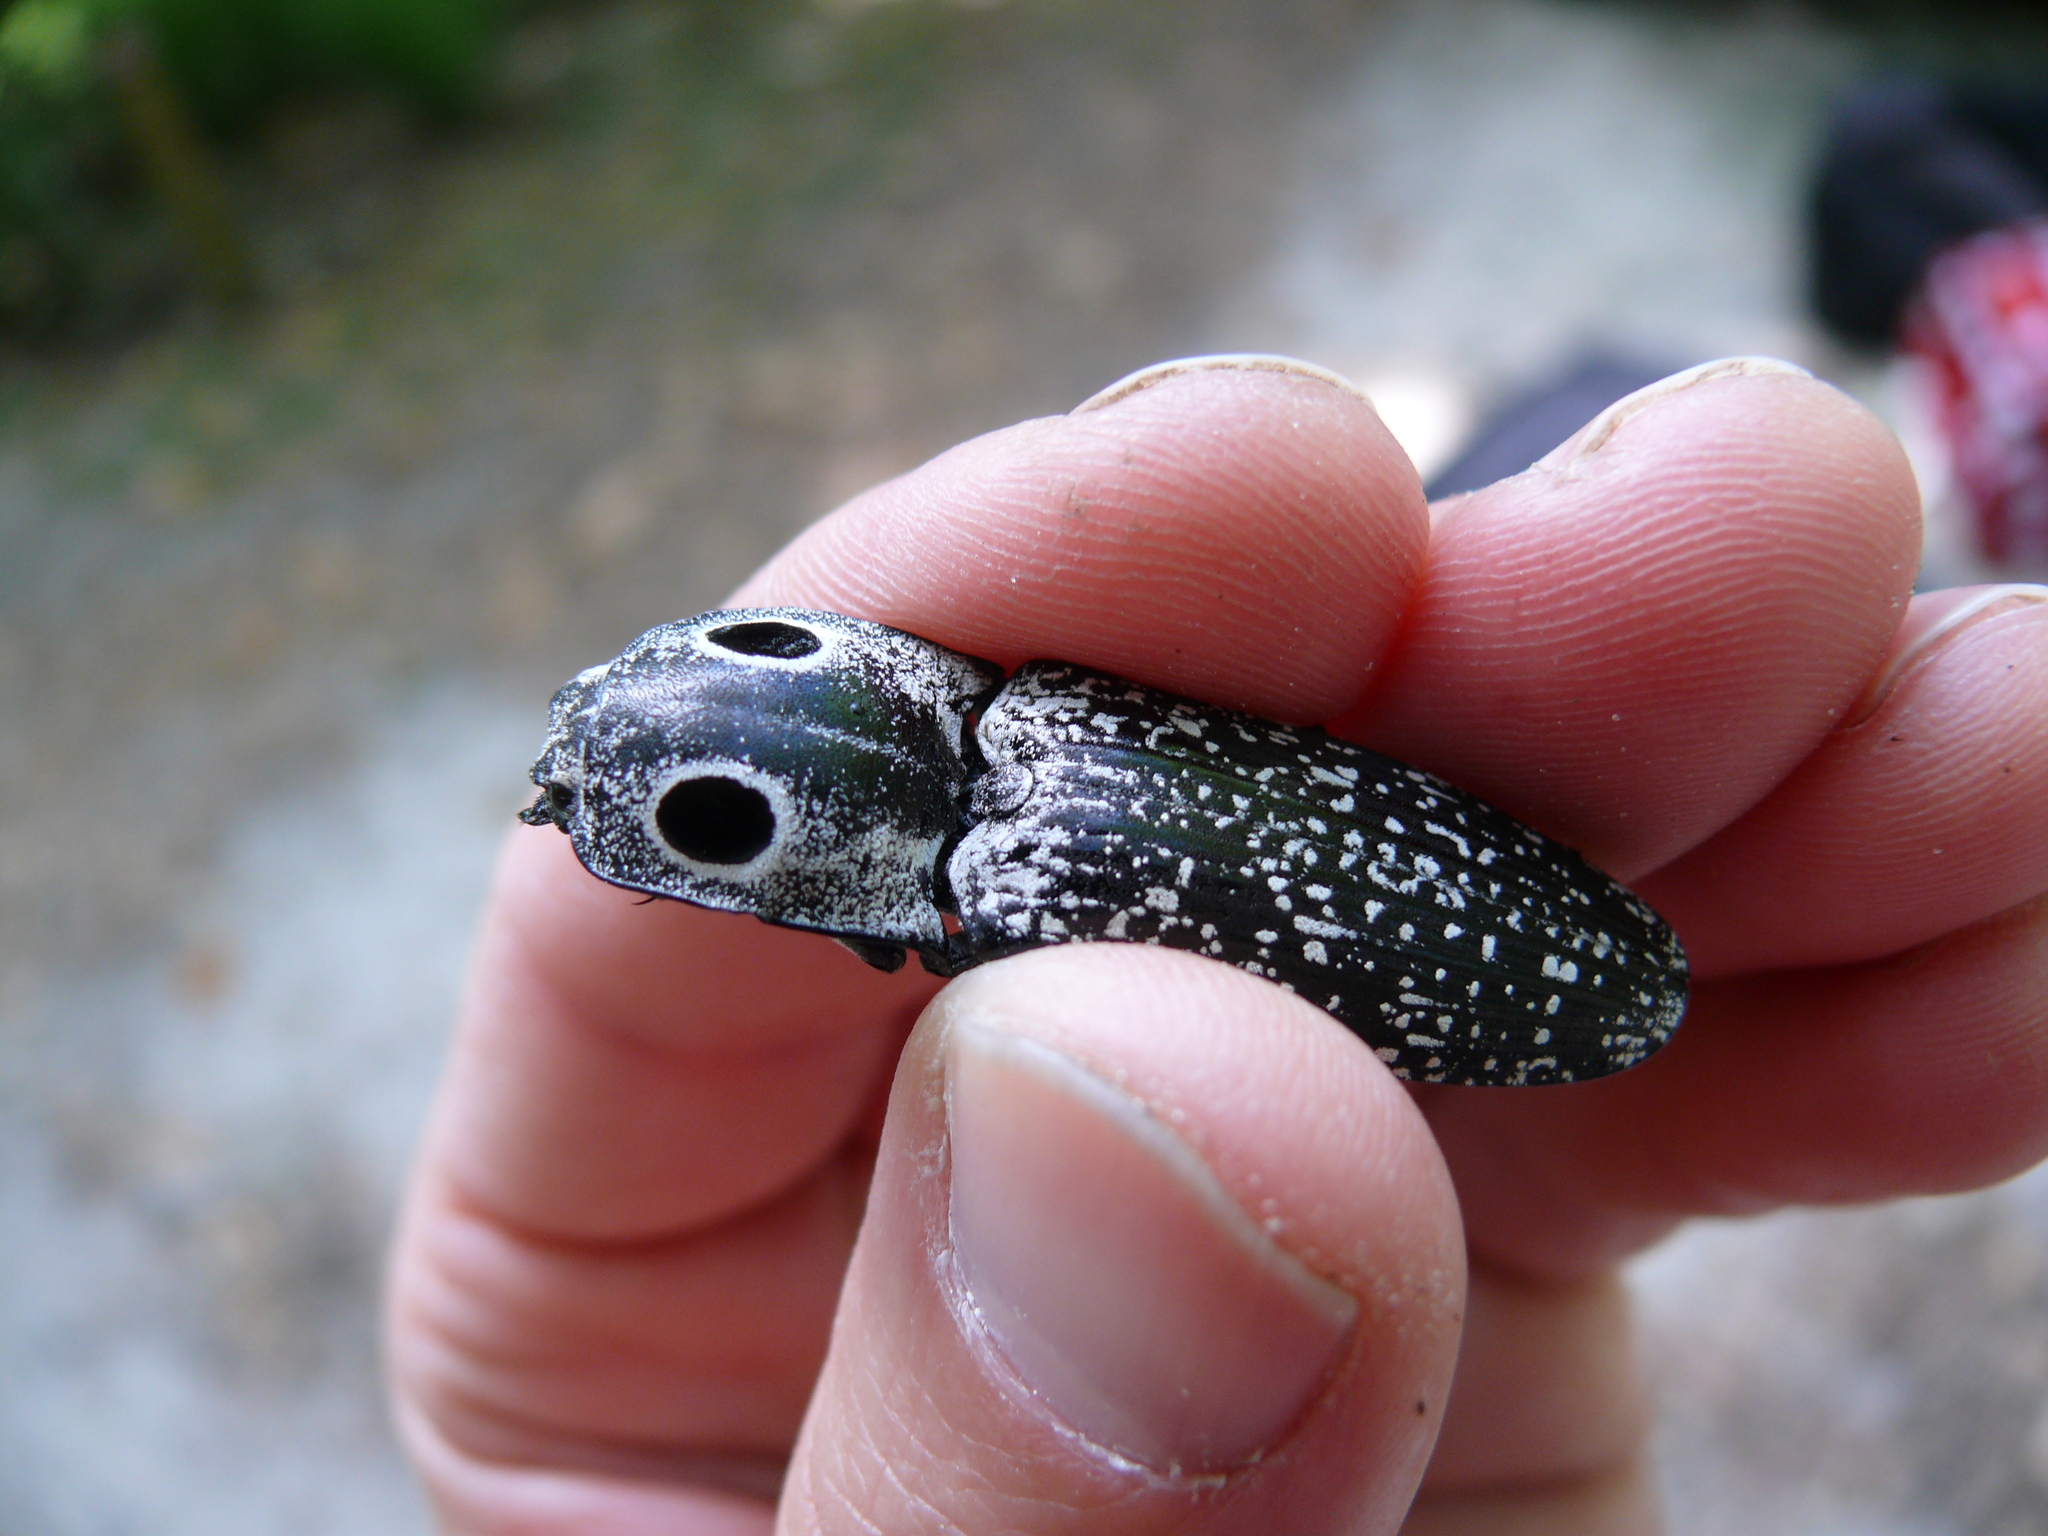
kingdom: Animalia
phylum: Arthropoda
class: Insecta
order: Coleoptera
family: Elateridae
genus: Alaus
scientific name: Alaus oculatus
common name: Eastern eyed click beetle
